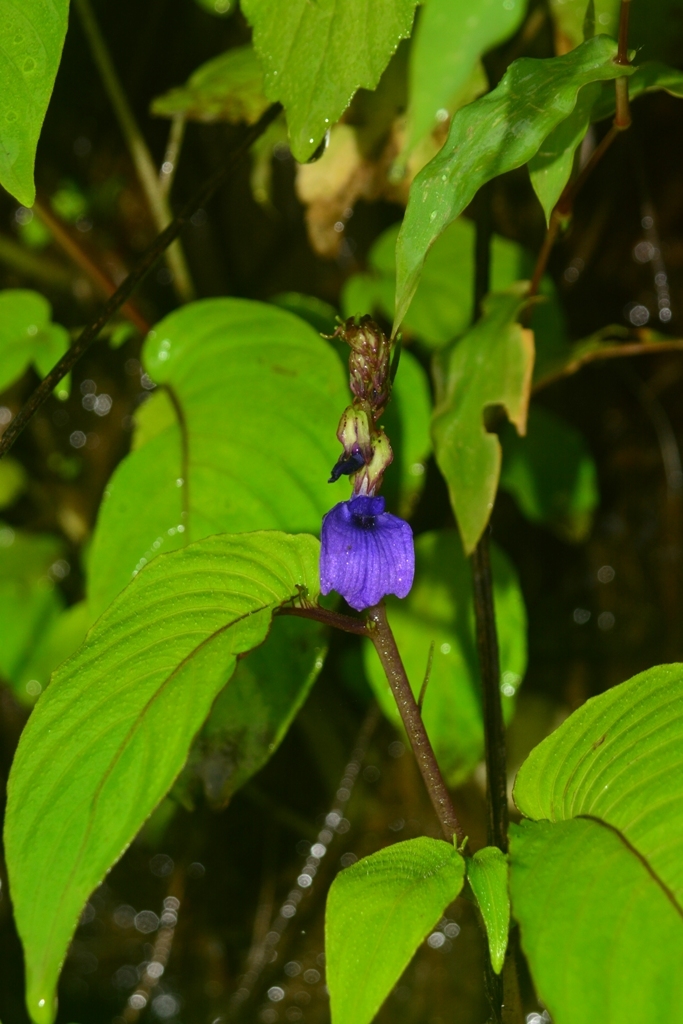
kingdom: Plantae
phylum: Tracheophyta
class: Magnoliopsida
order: Lamiales
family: Gesneriaceae
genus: Rhynchoglossum
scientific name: Rhynchoglossum notonianum
